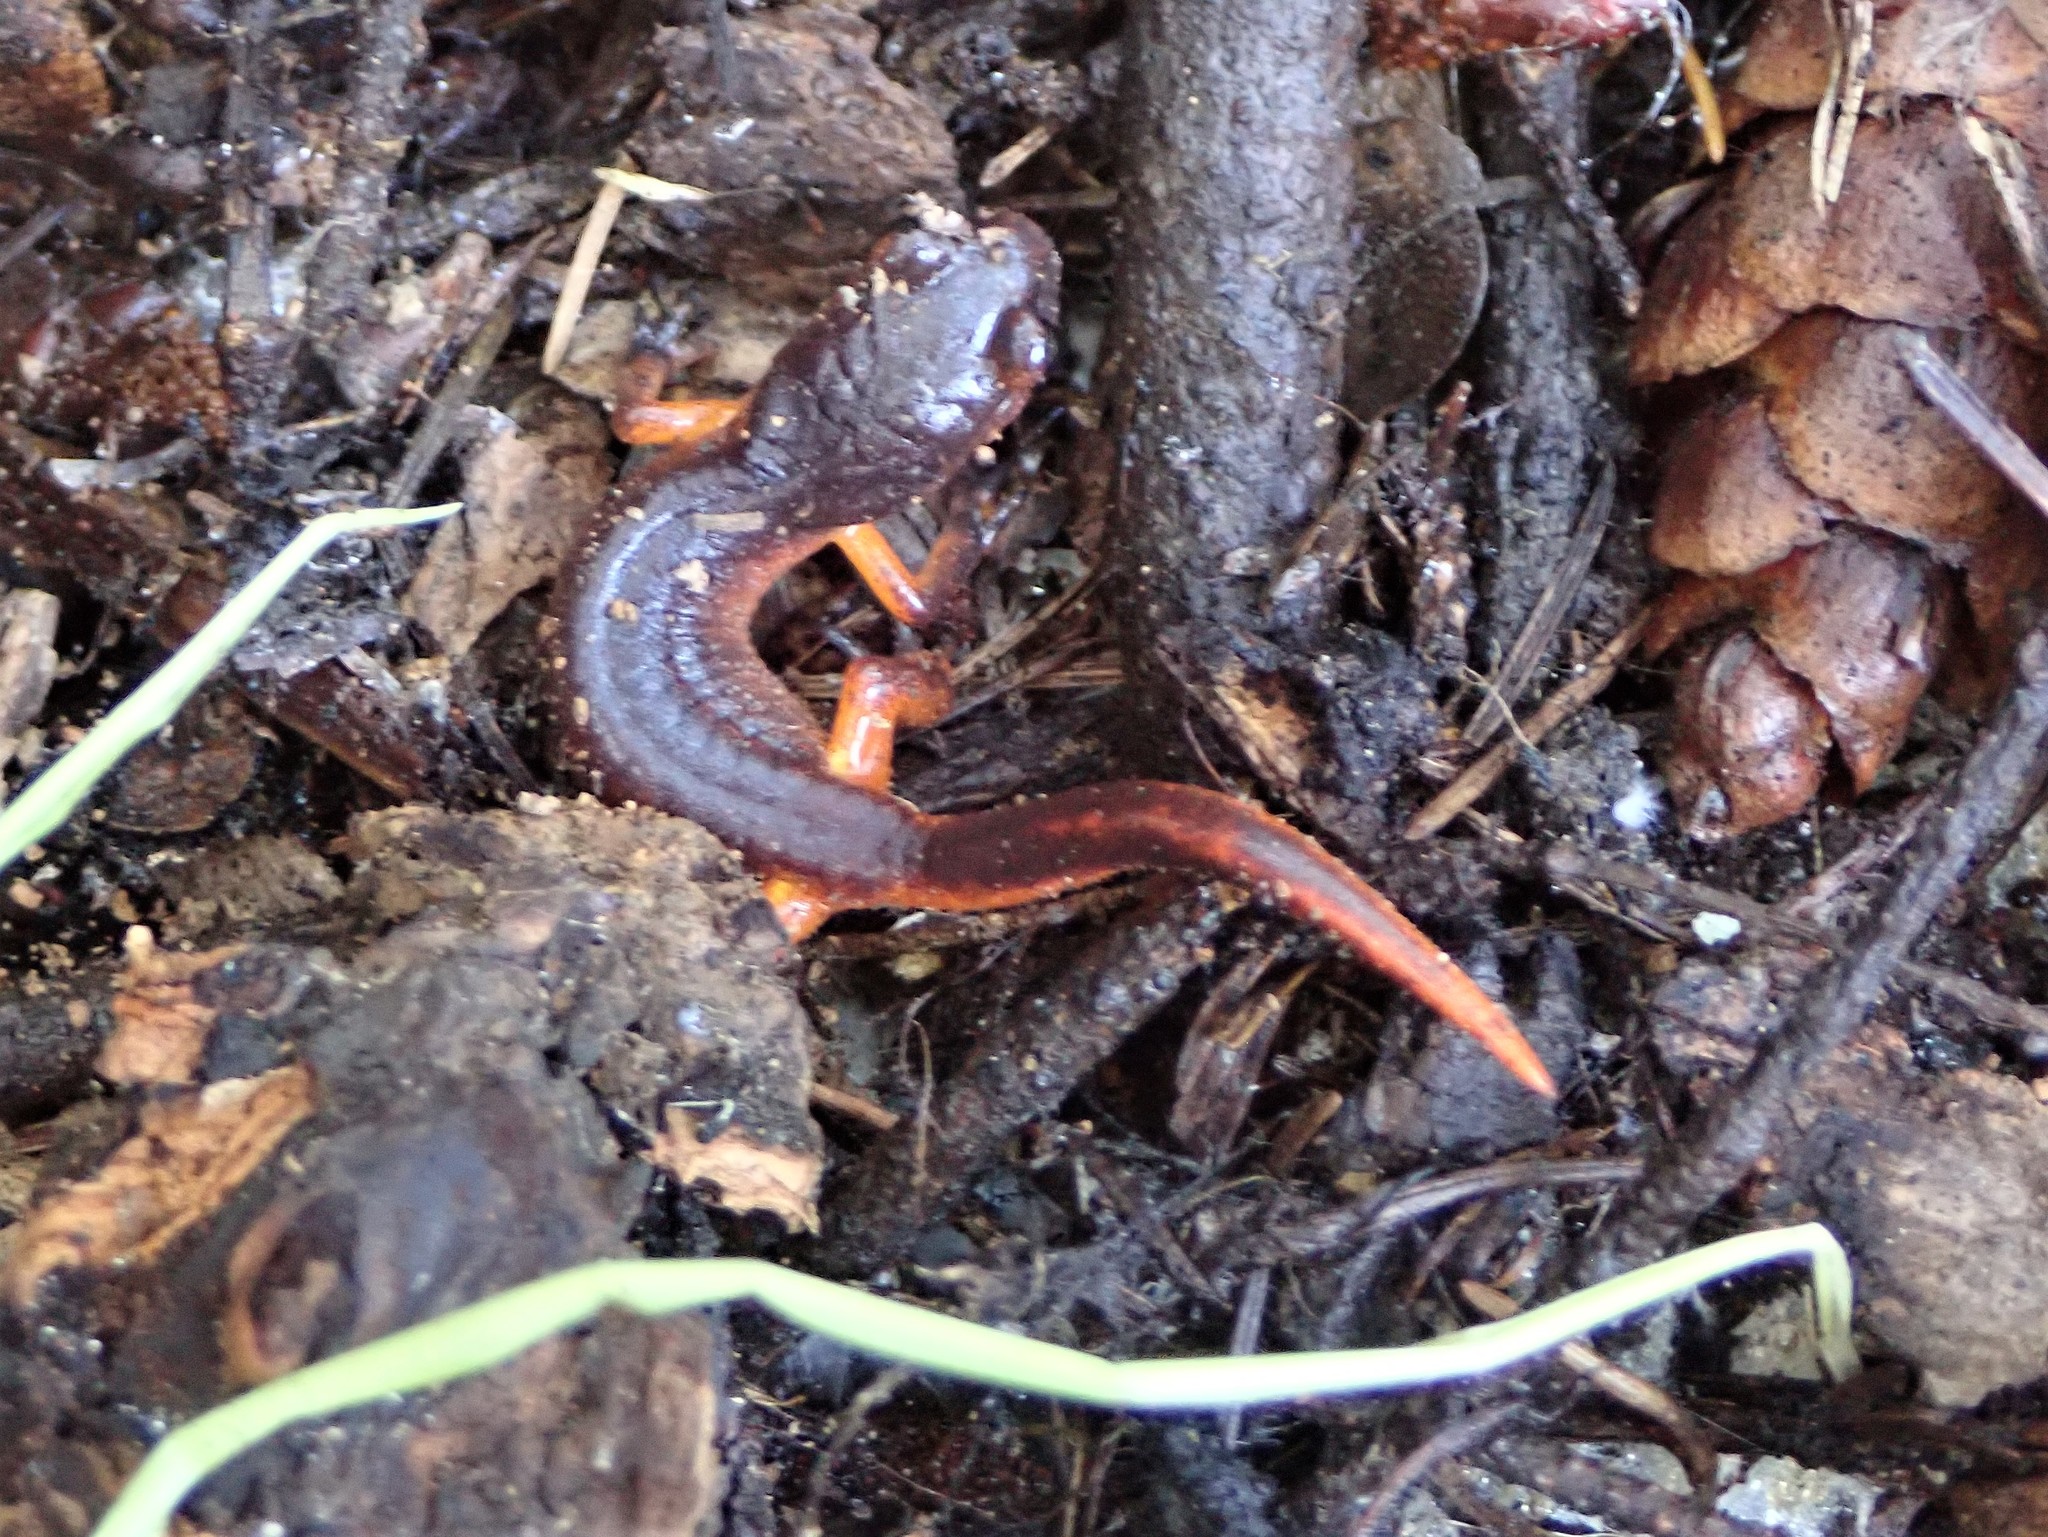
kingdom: Animalia
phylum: Chordata
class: Amphibia
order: Caudata
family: Plethodontidae
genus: Ensatina
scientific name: Ensatina eschscholtzii
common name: Ensatina
